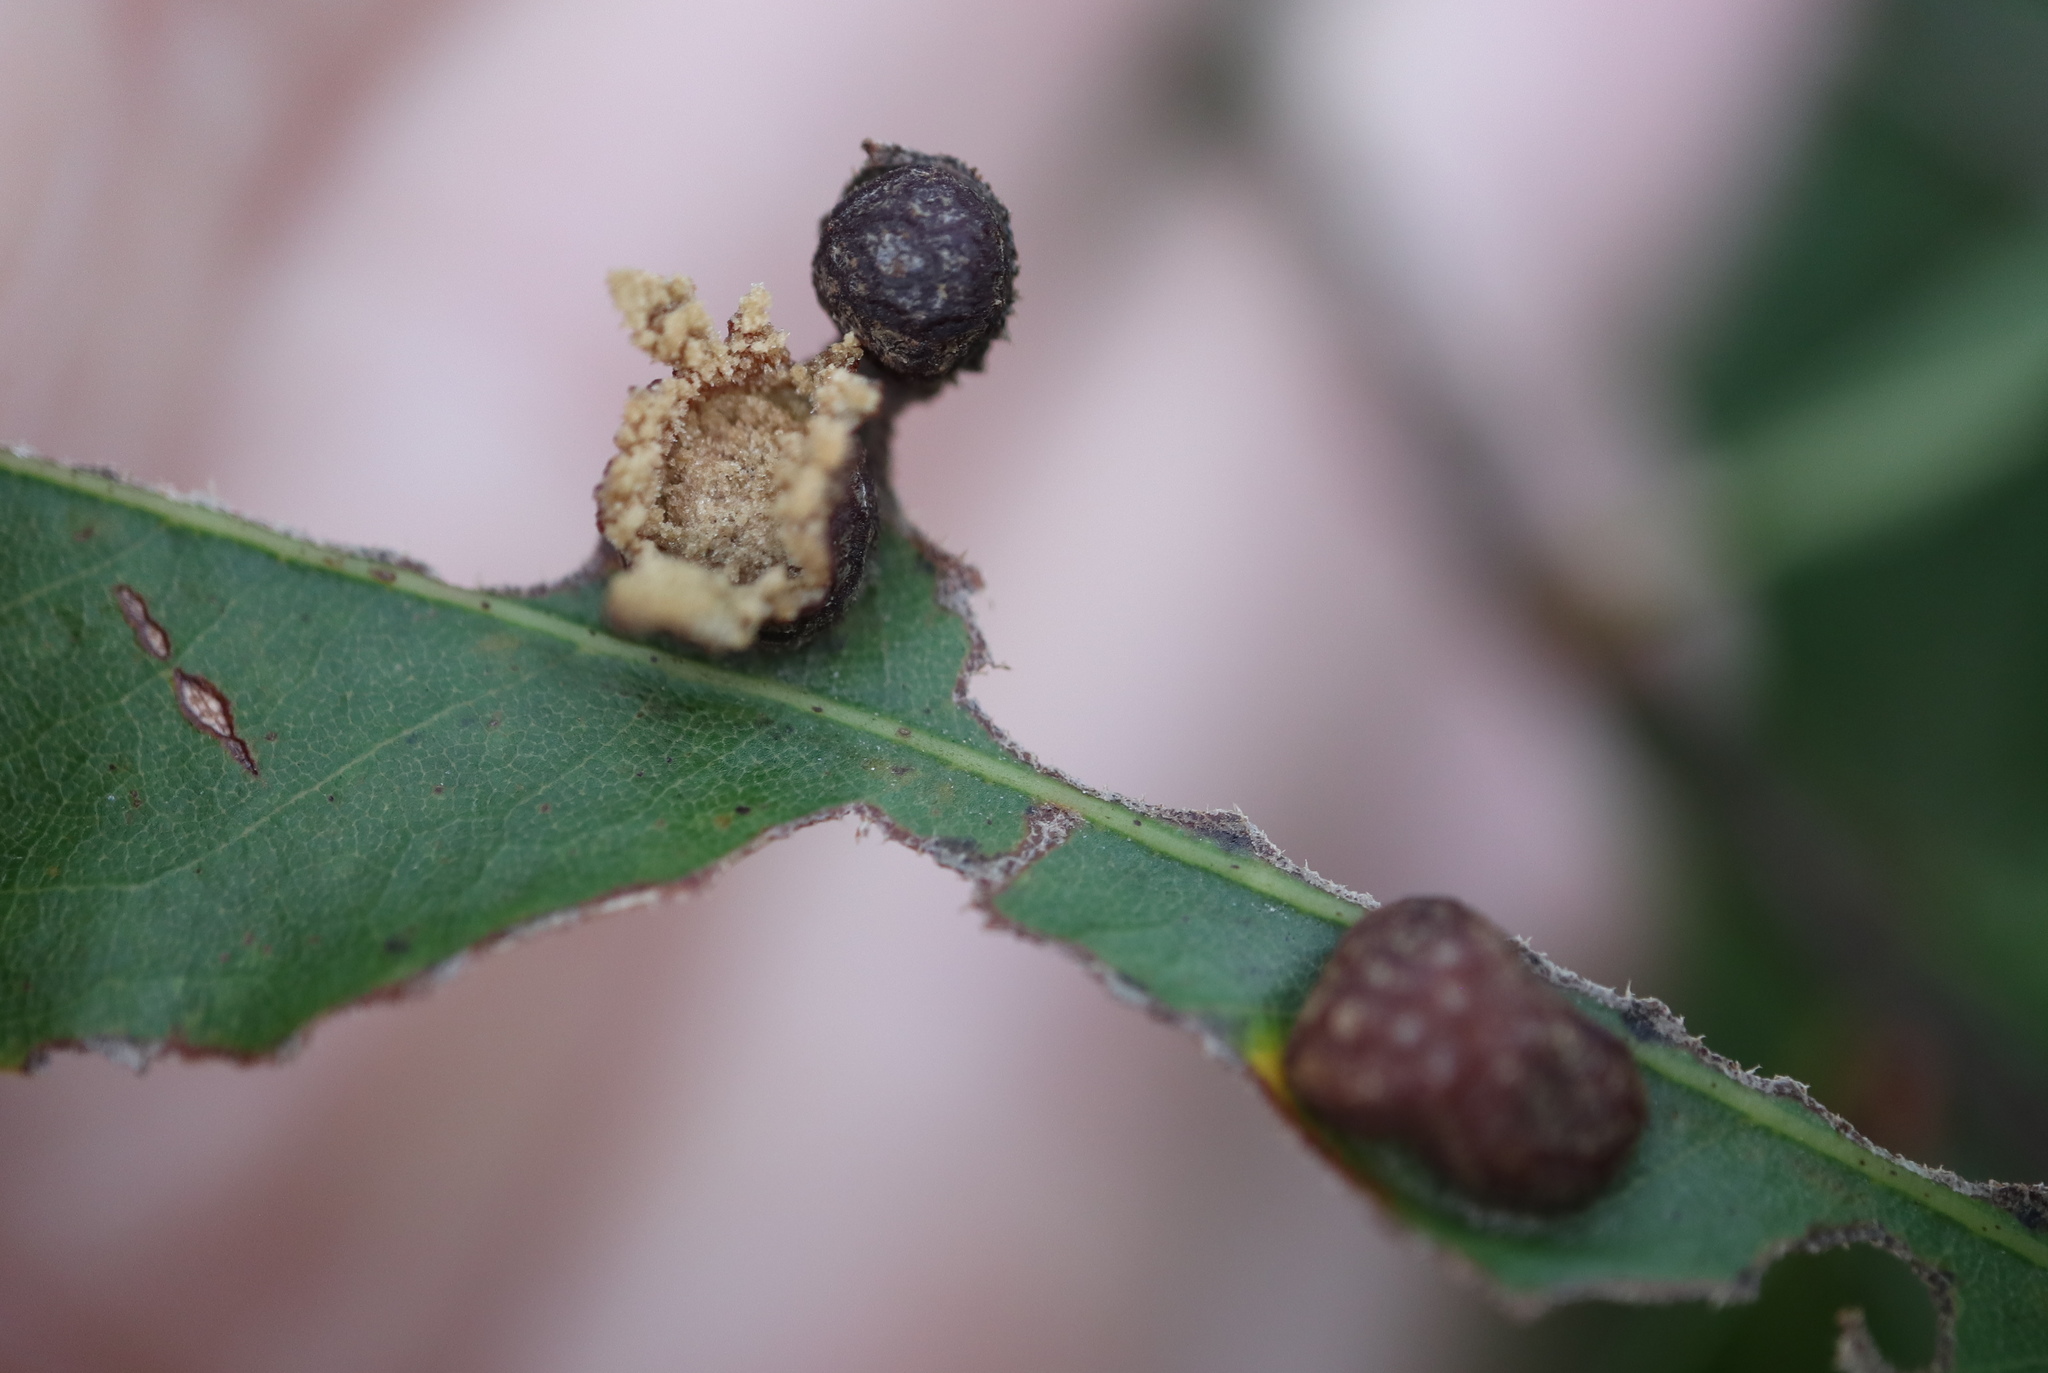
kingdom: Animalia
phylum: Arthropoda
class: Insecta
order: Diptera
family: Cecidomyiidae
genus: Polystepha
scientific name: Polystepha pilulae
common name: Oak leaf gall midge
